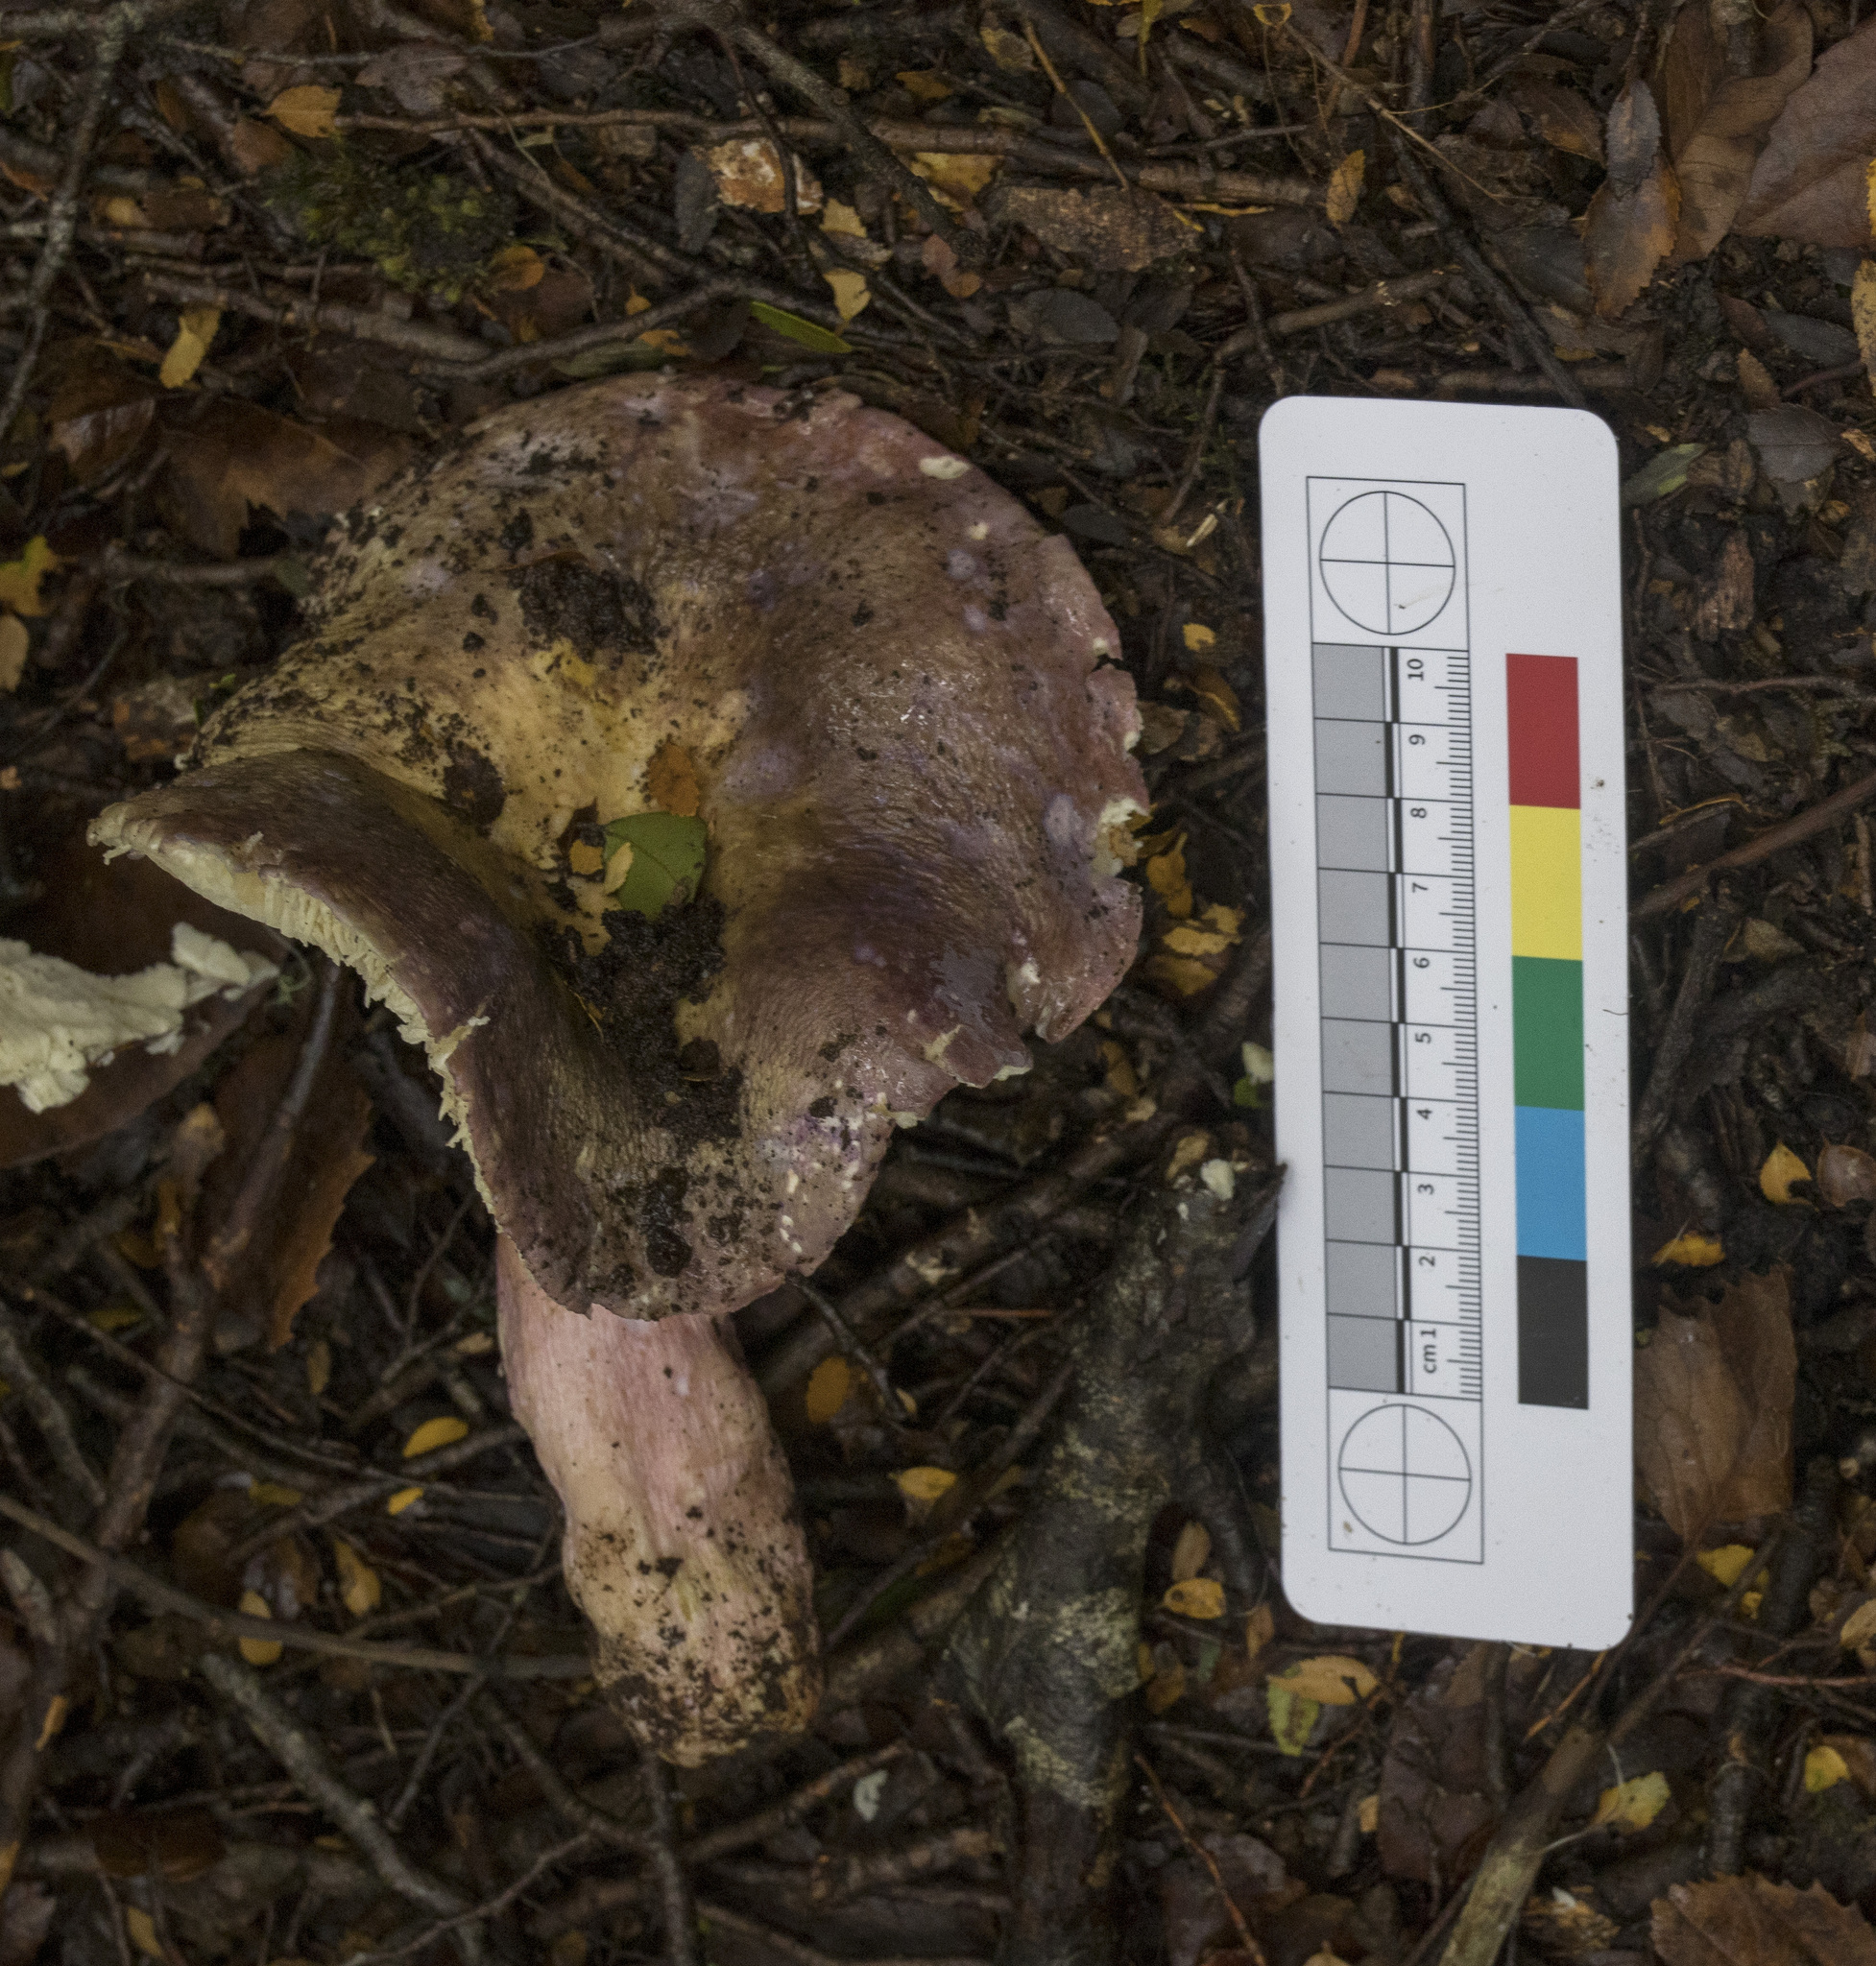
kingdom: Fungi
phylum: Basidiomycota
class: Agaricomycetes
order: Russulales
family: Russulaceae
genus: Russula
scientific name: Russula major
